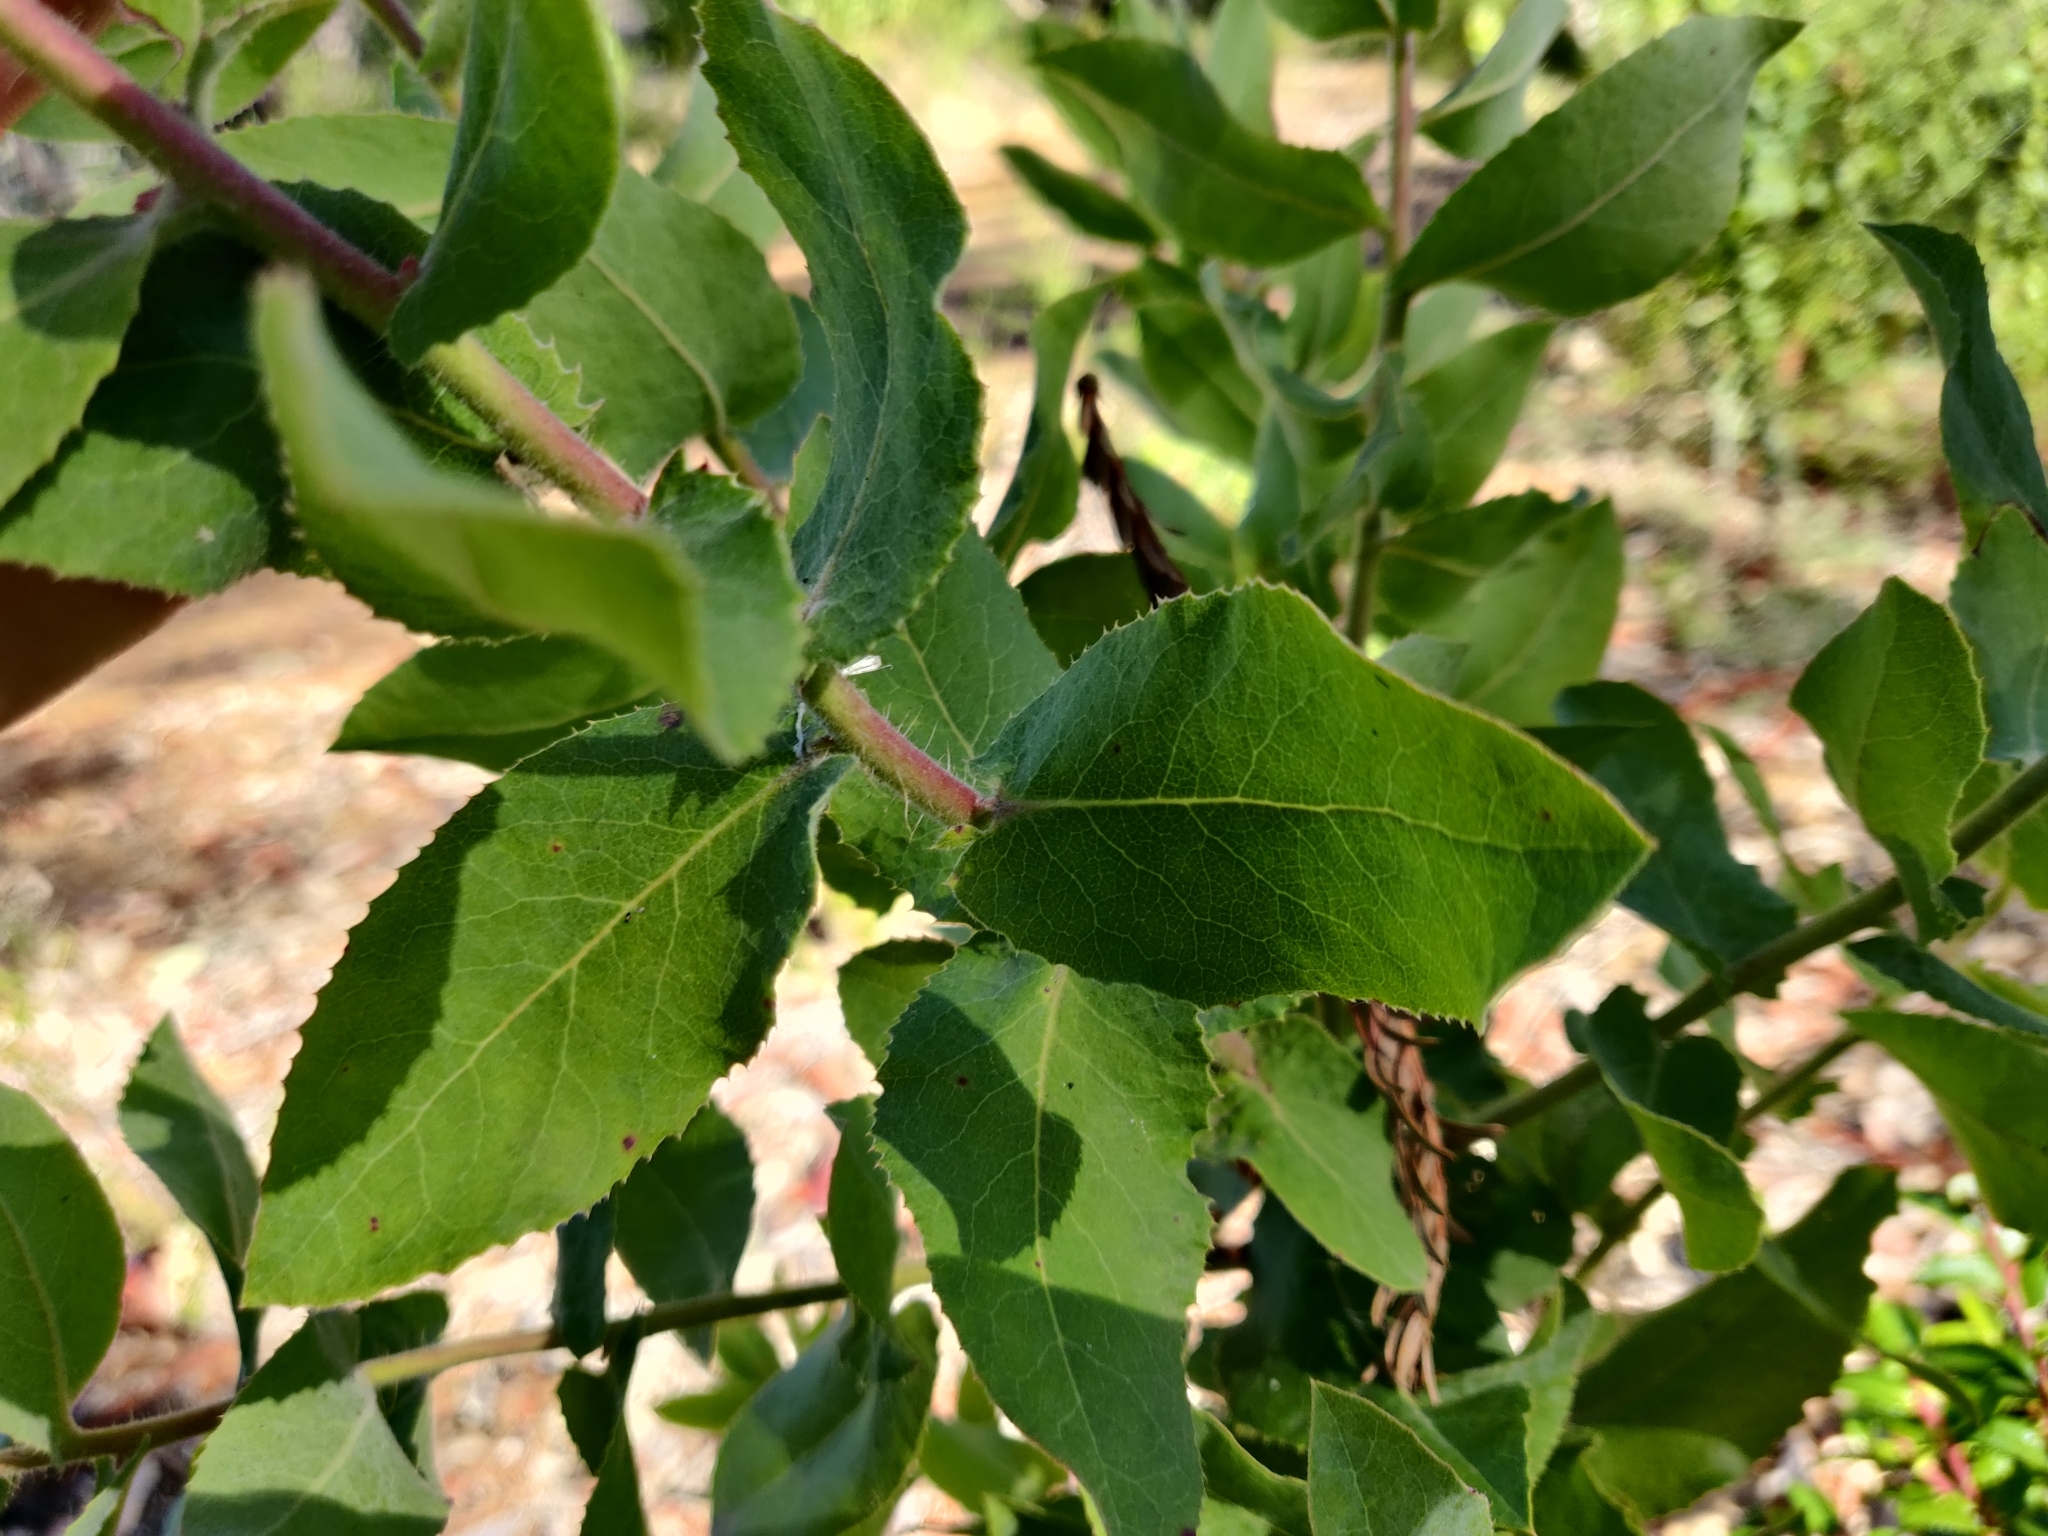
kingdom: Plantae
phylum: Tracheophyta
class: Magnoliopsida
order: Ericales
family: Ericaceae
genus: Arctostaphylos
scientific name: Arctostaphylos andersonii
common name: Santa cruz manzanita
